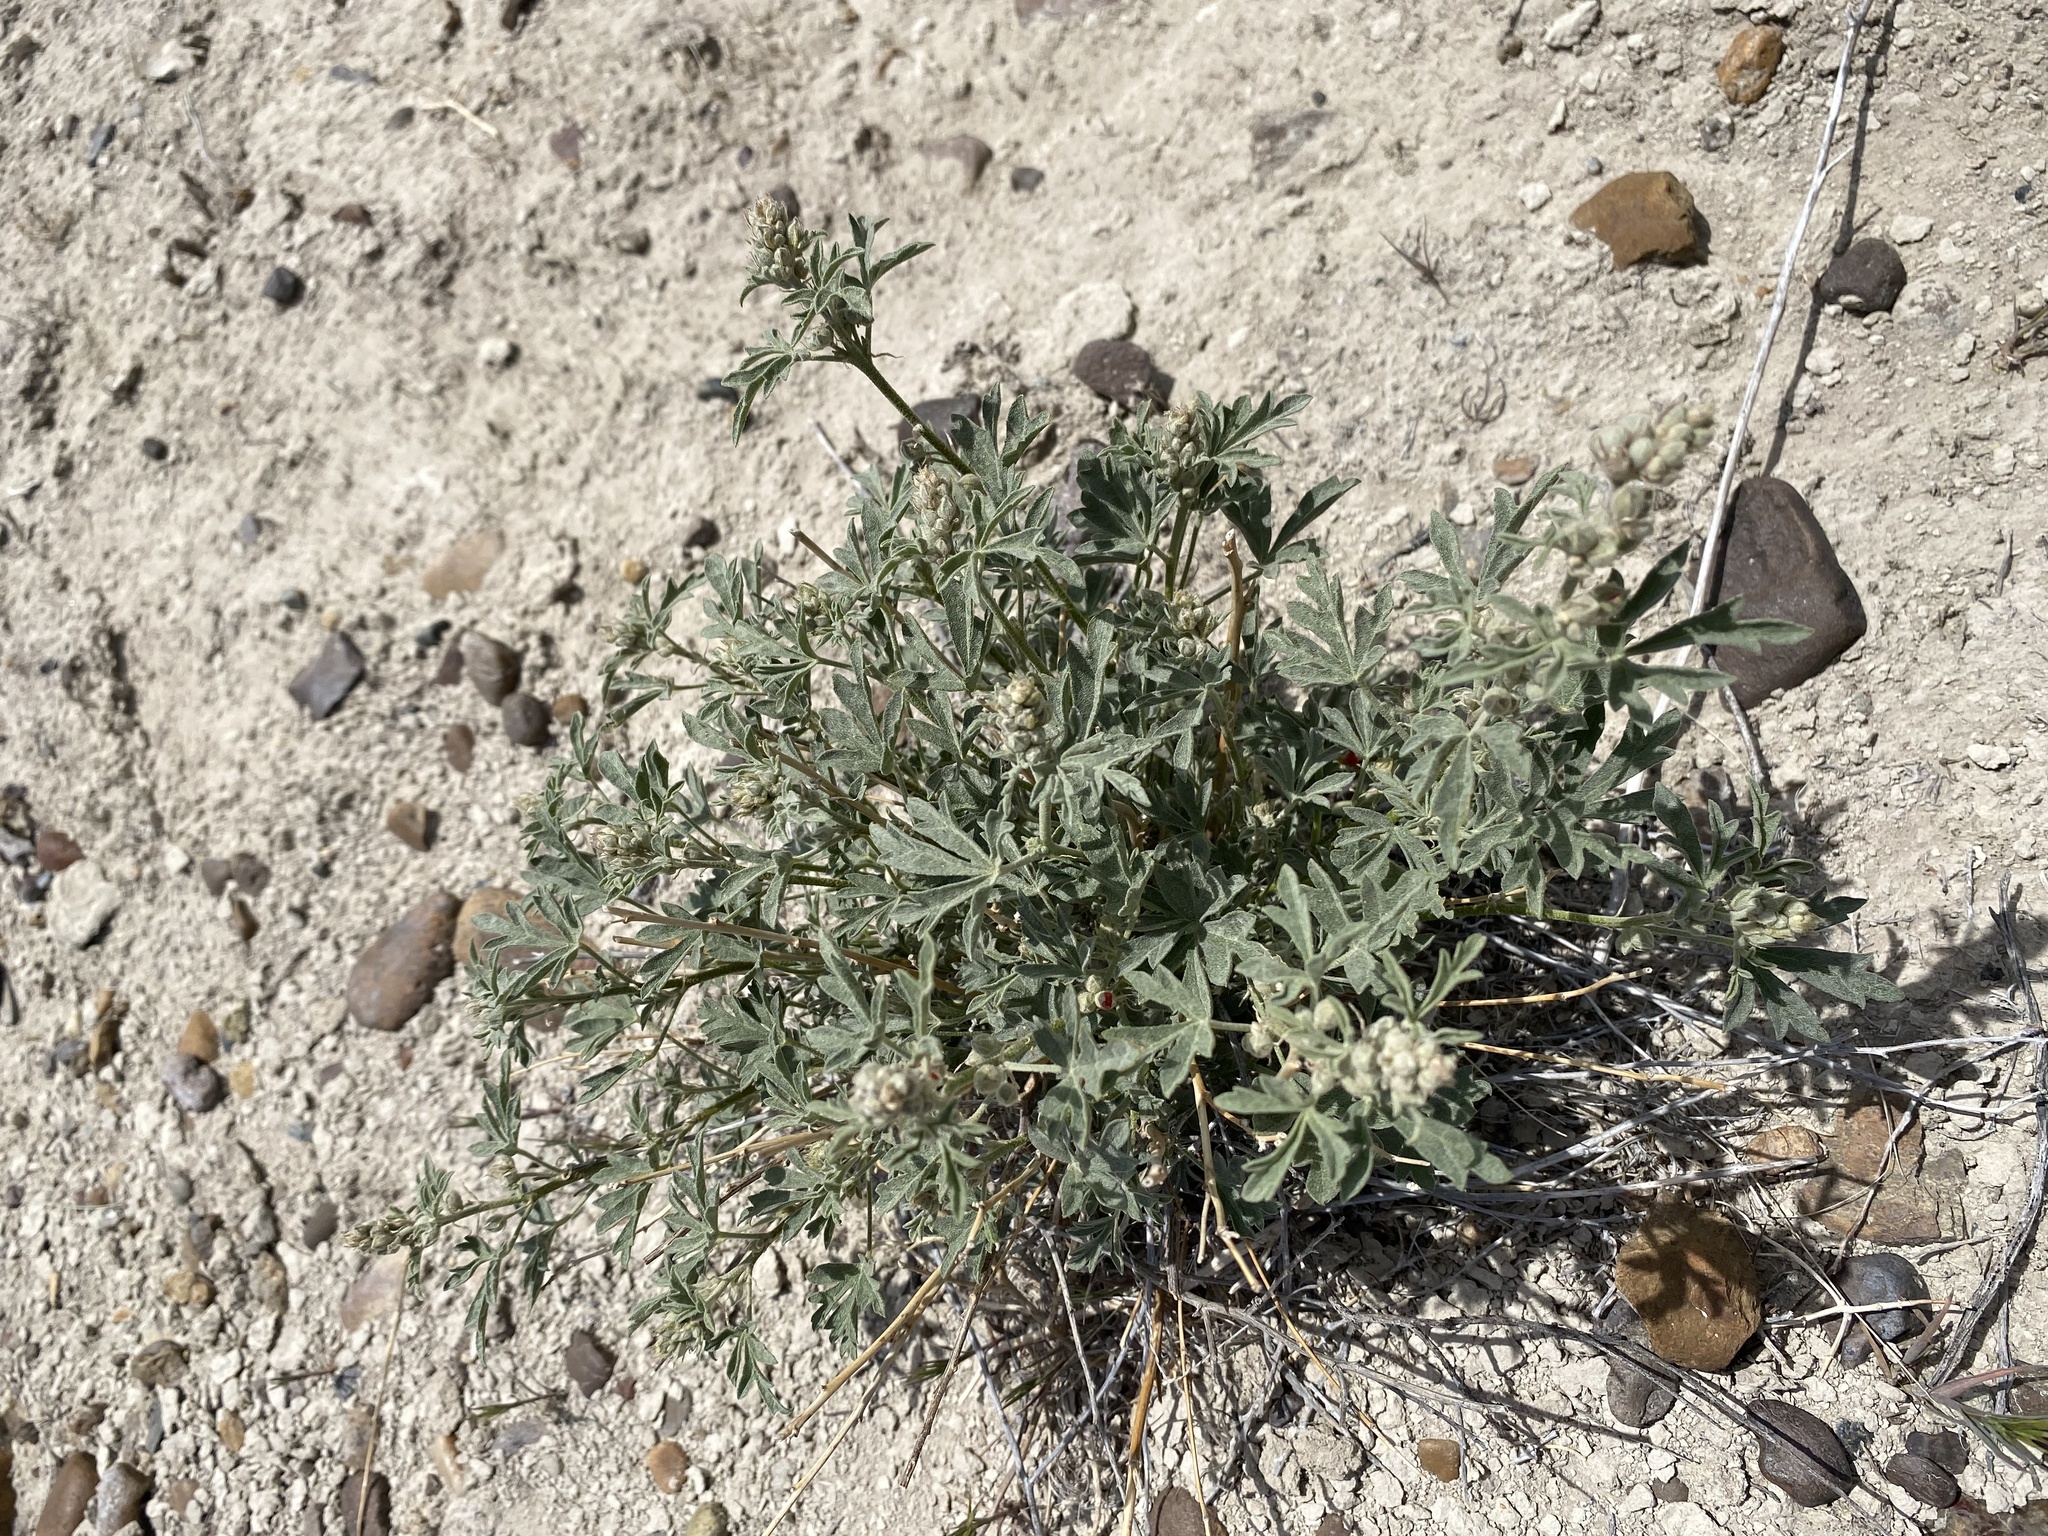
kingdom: Plantae
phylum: Tracheophyta
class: Magnoliopsida
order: Malvales
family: Malvaceae
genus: Sphaeralcea
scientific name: Sphaeralcea grossulariifolia
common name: Current-leaf globe-mallow
